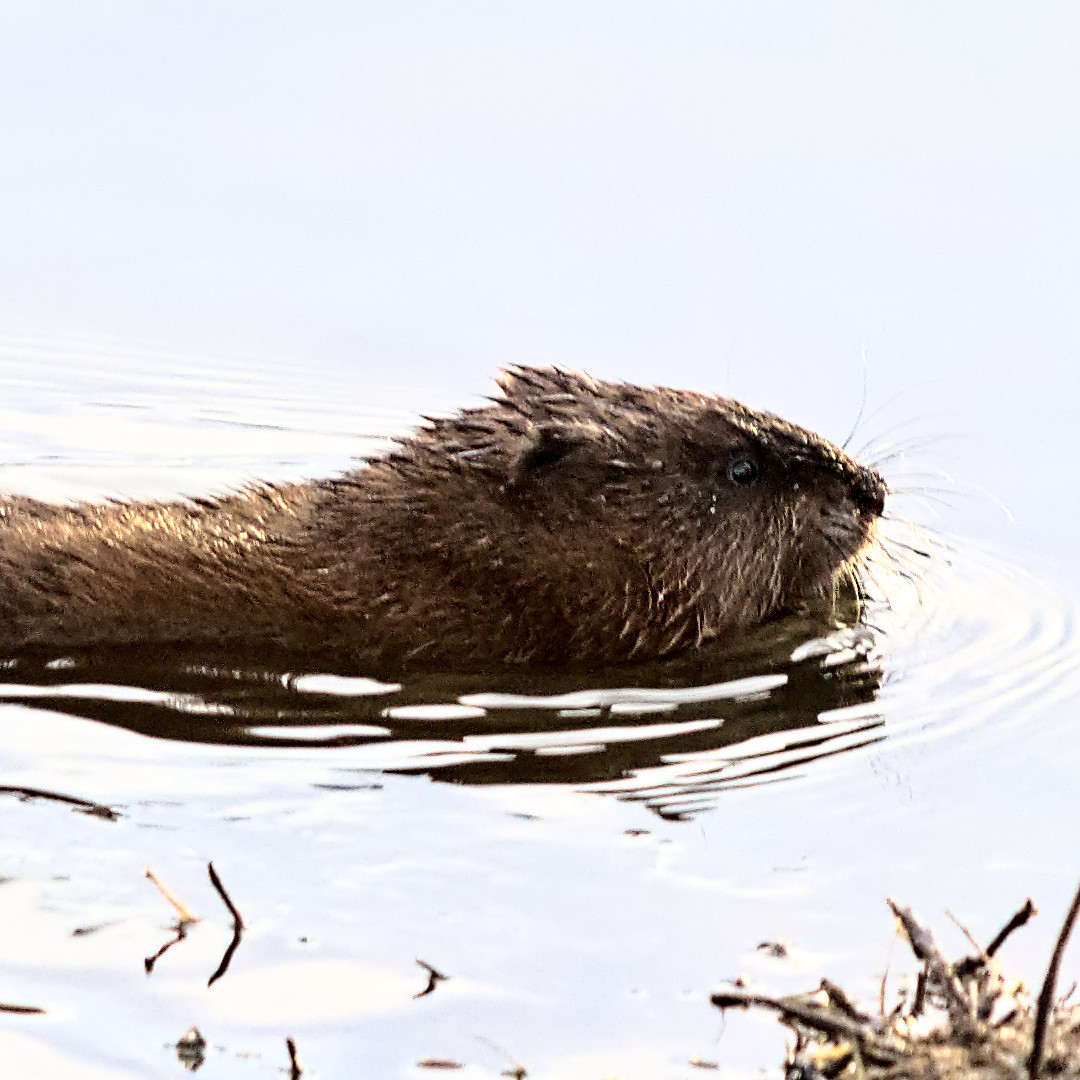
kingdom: Animalia
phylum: Chordata
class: Mammalia
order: Rodentia
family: Cricetidae
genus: Ondatra
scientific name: Ondatra zibethicus
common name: Muskrat
